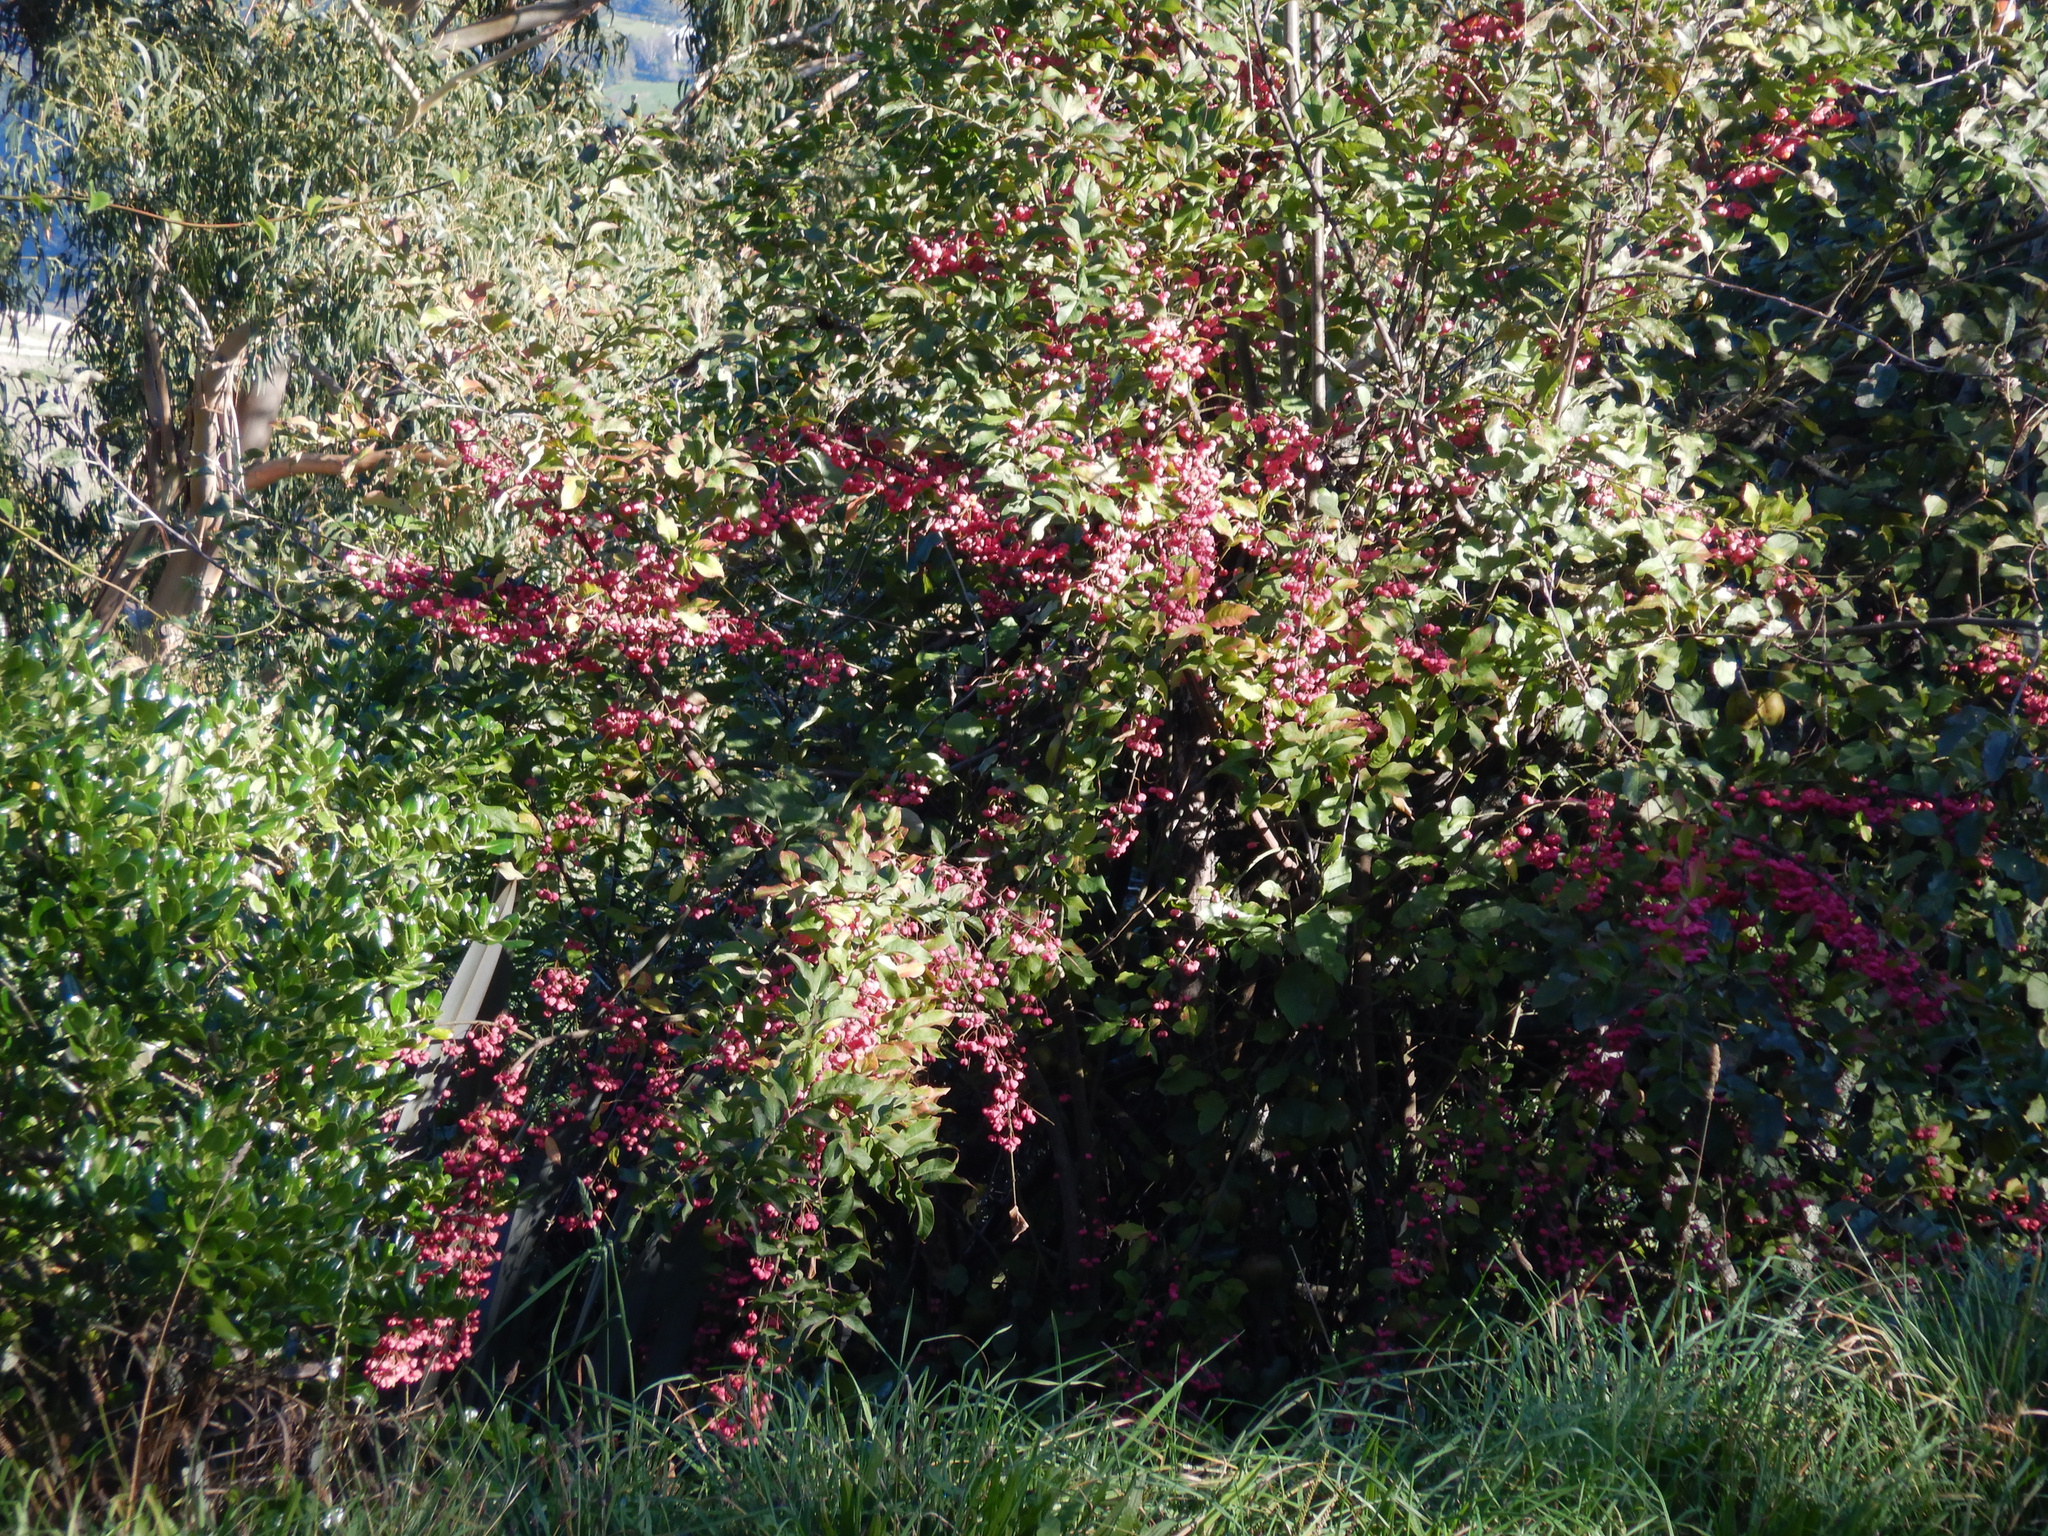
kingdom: Plantae
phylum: Tracheophyta
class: Magnoliopsida
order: Celastrales
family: Celastraceae
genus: Euonymus
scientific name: Euonymus europaeus
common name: Spindle
